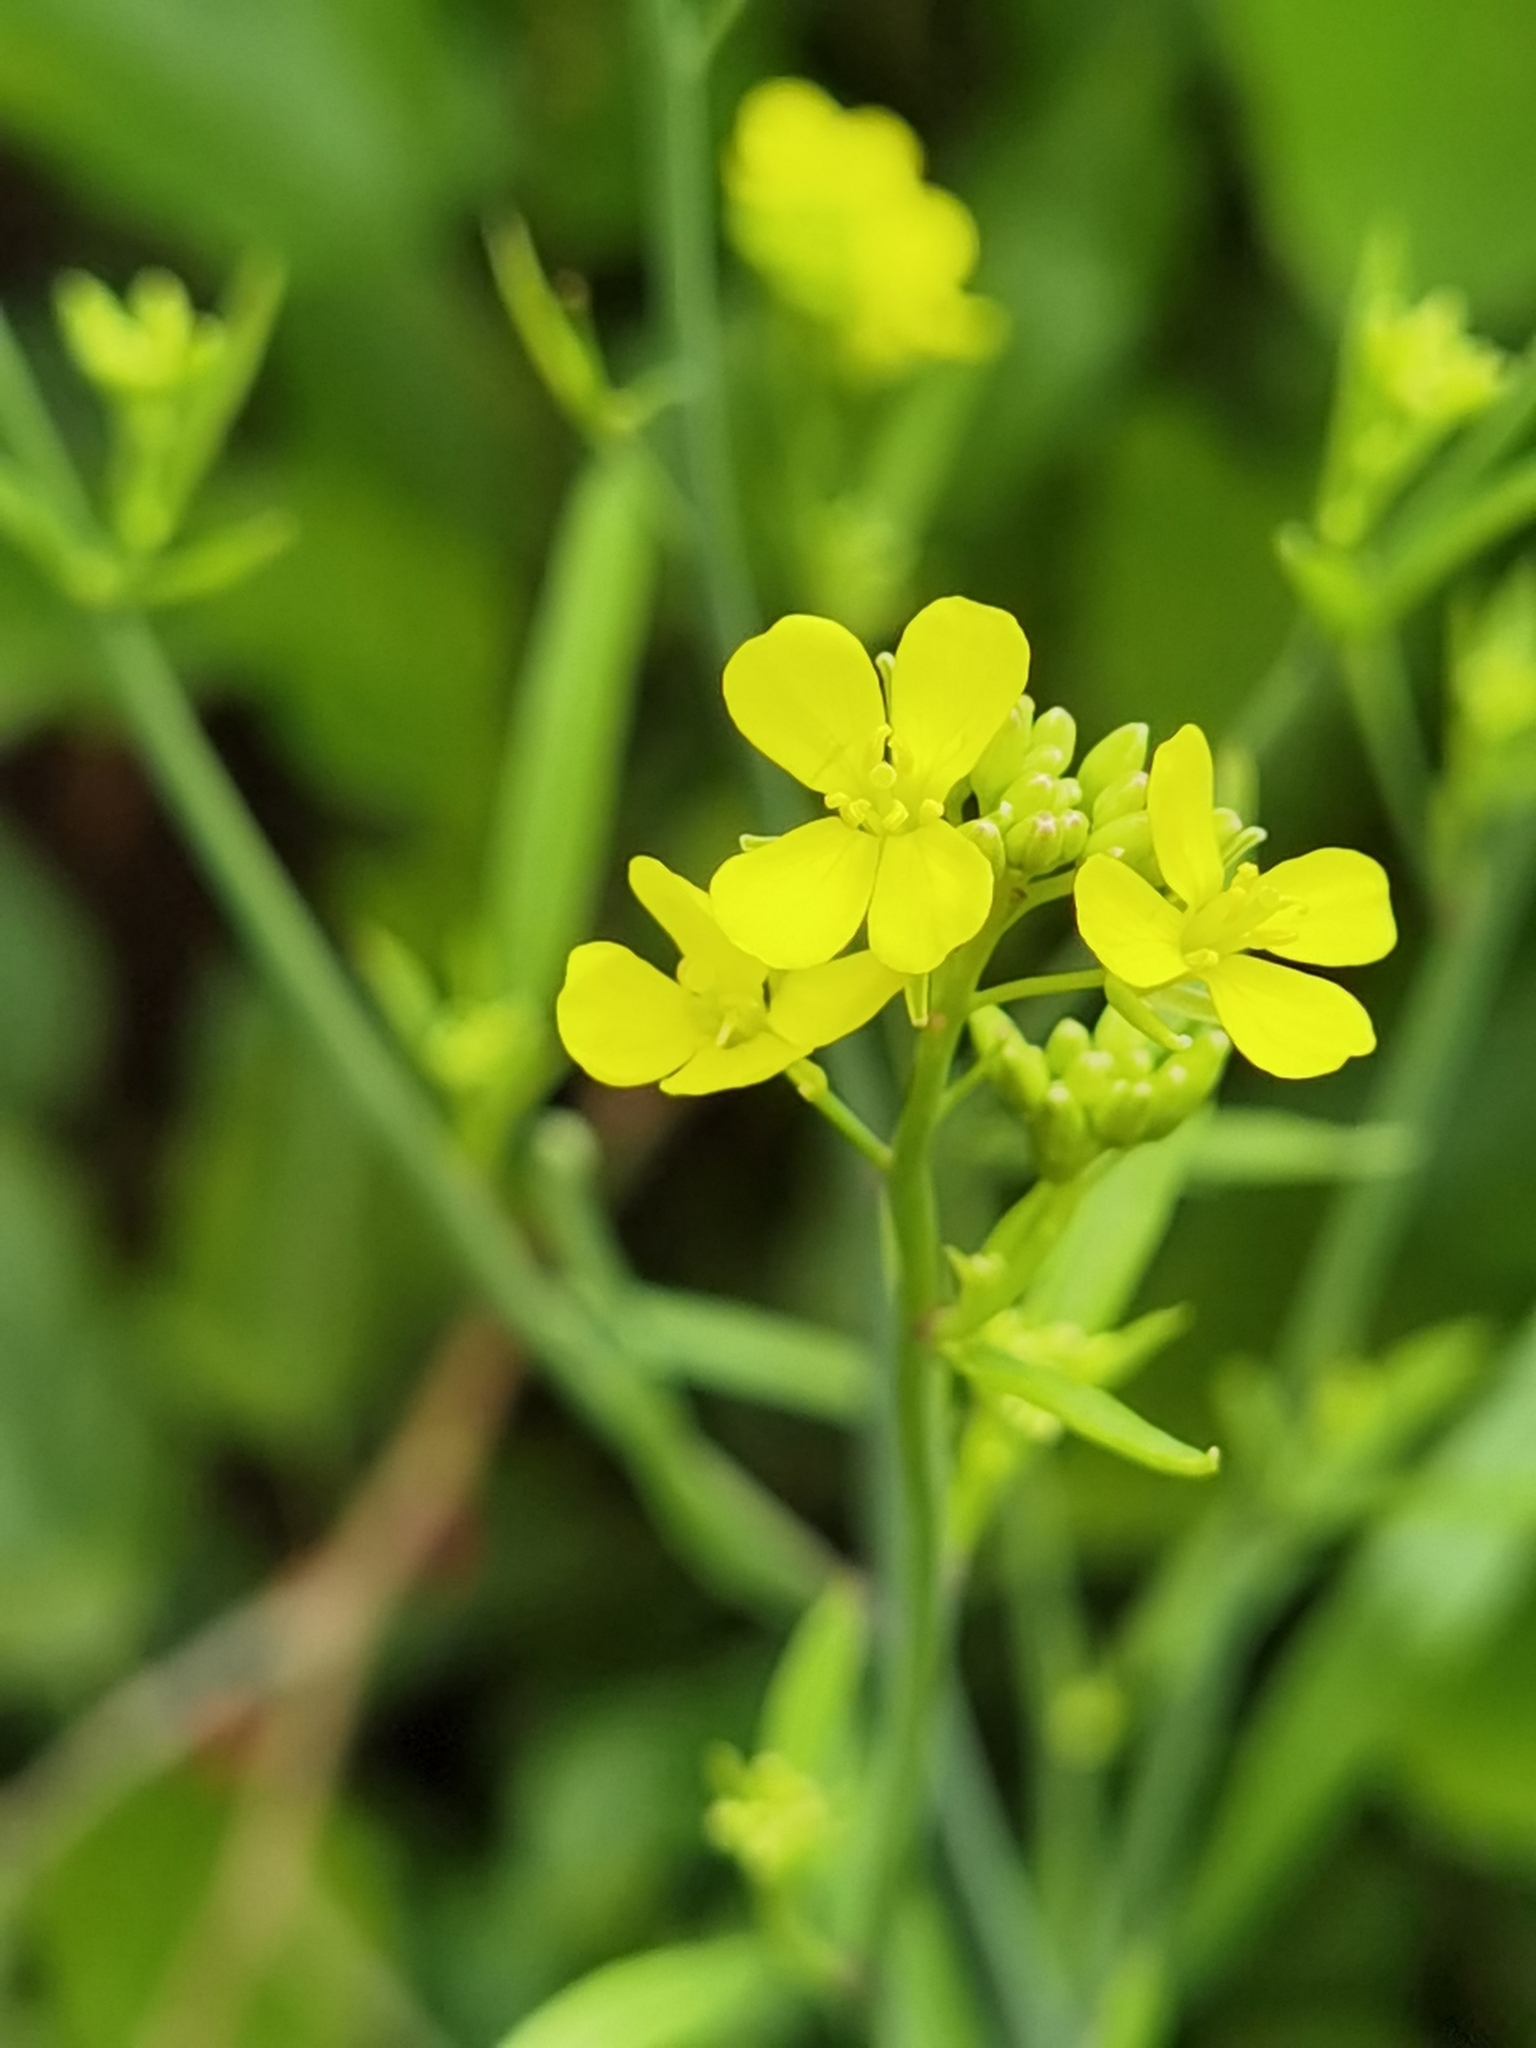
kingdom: Plantae
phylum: Tracheophyta
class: Magnoliopsida
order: Brassicales
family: Brassicaceae
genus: Brassica
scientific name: Brassica nigra
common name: Black mustard
